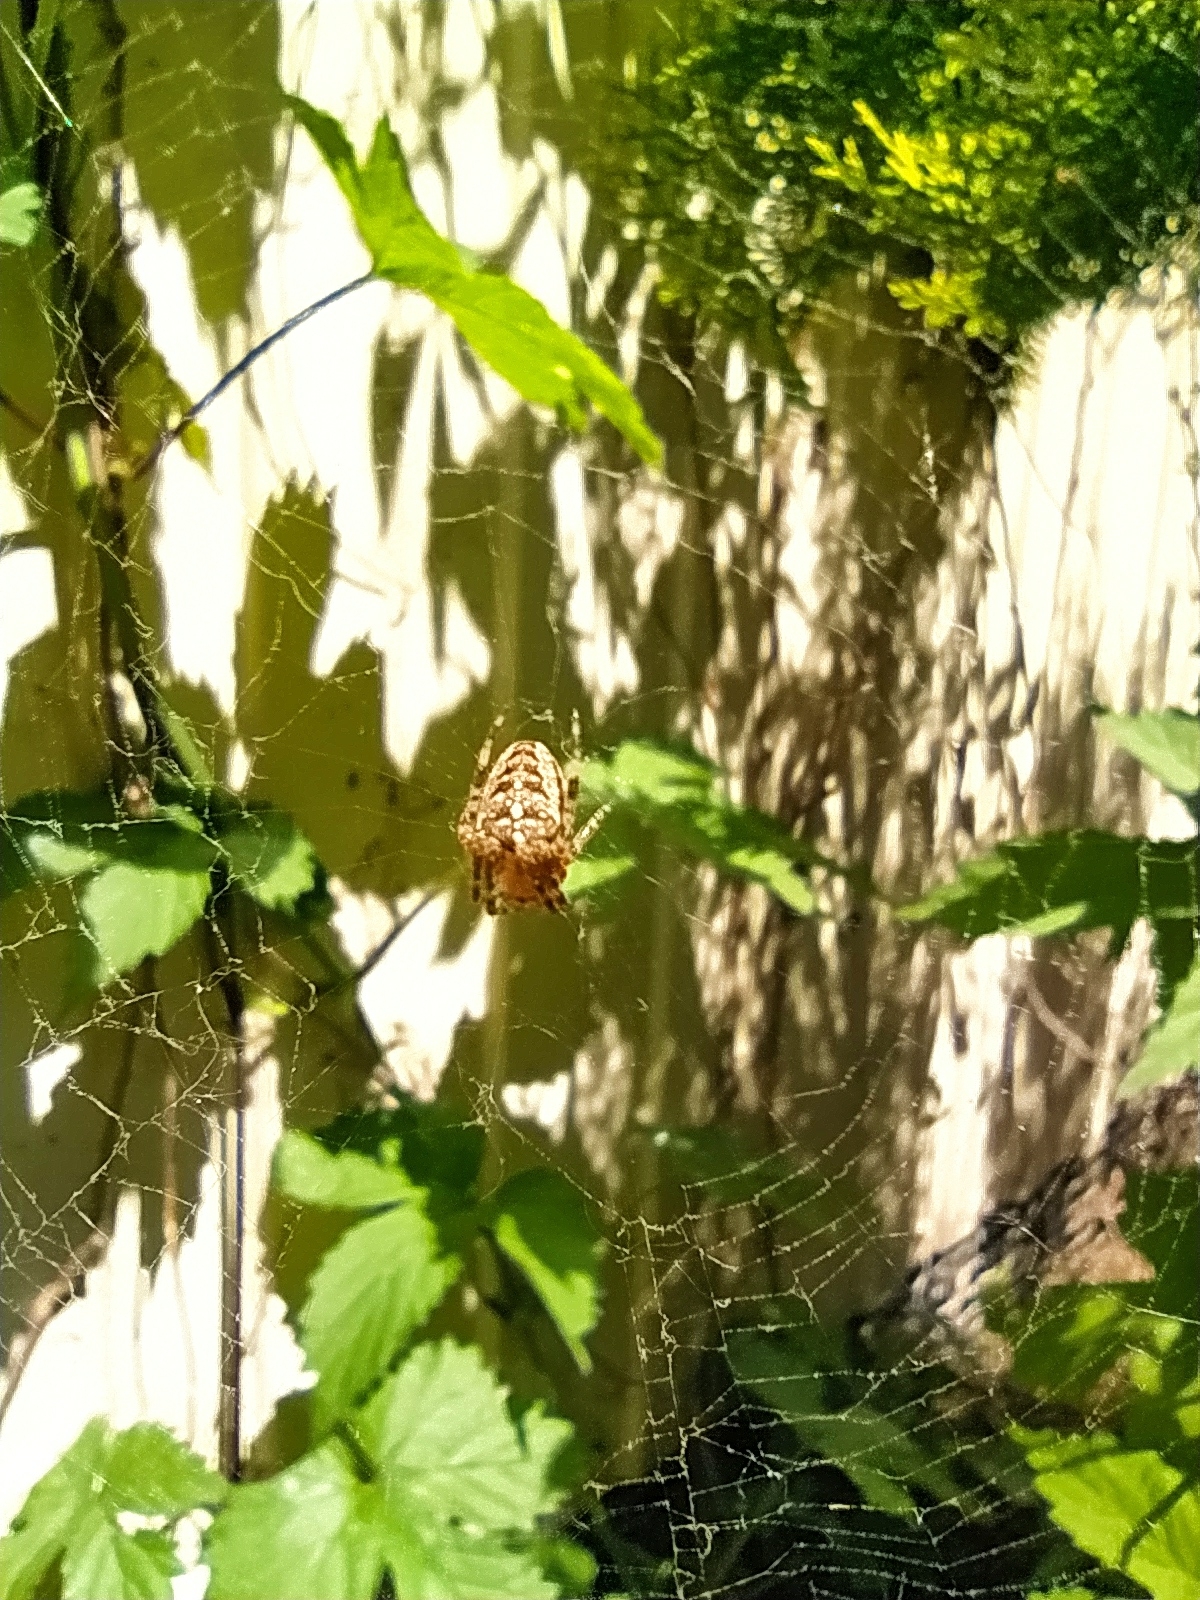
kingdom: Animalia
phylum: Arthropoda
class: Arachnida
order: Araneae
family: Araneidae
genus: Araneus
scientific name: Araneus diadematus
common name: Cross orbweaver
